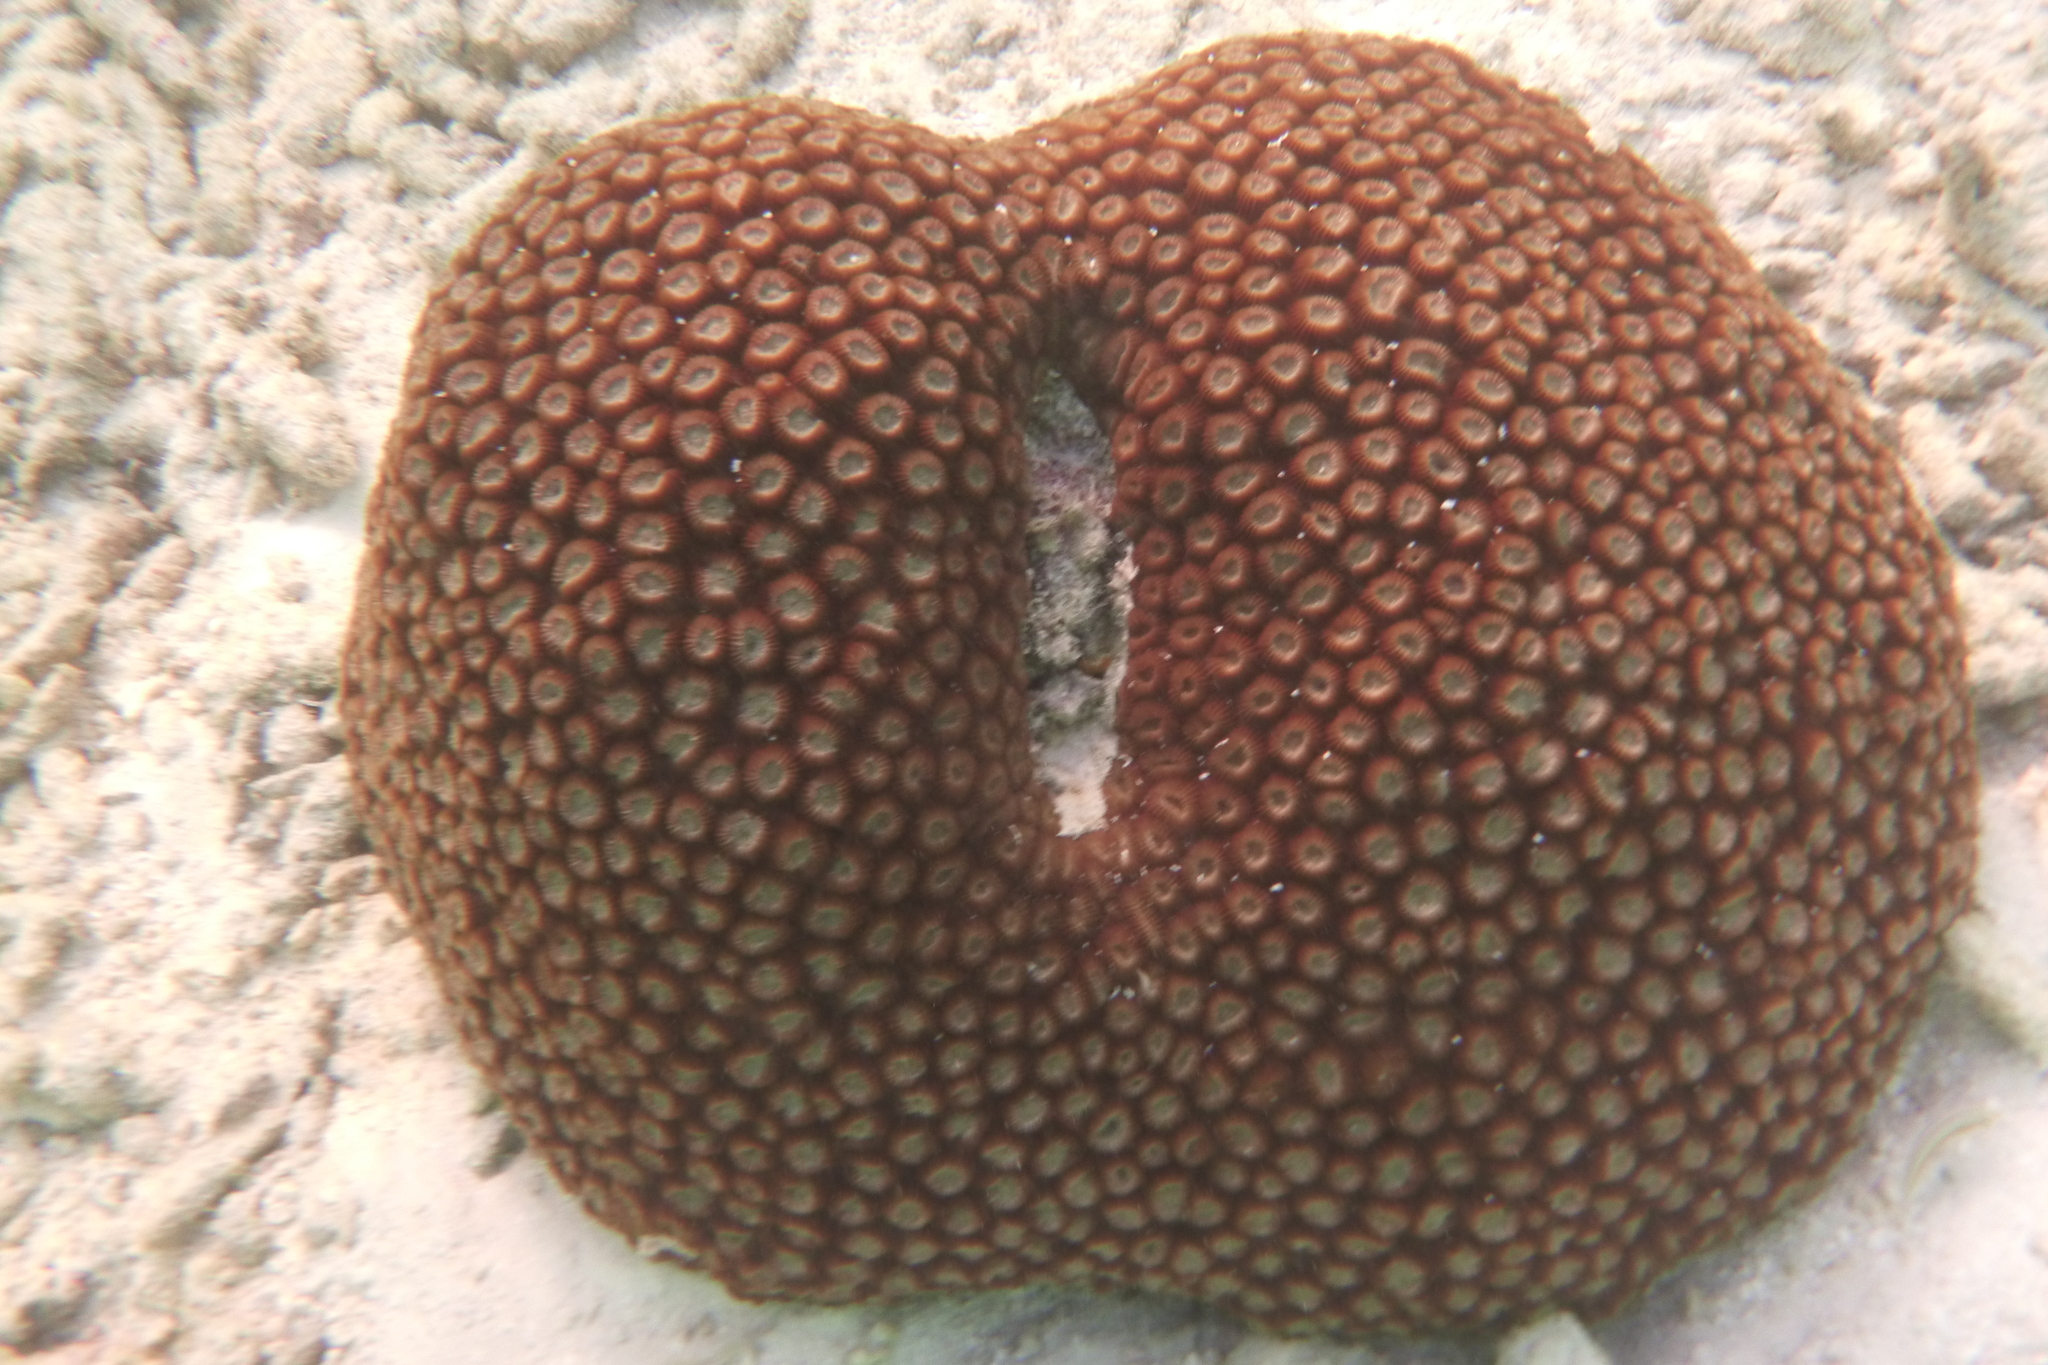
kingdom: Animalia
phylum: Cnidaria
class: Anthozoa
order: Scleractinia
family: Diploastraeidae
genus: Diploastrea
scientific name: Diploastrea heliopora
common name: Double-star coral
